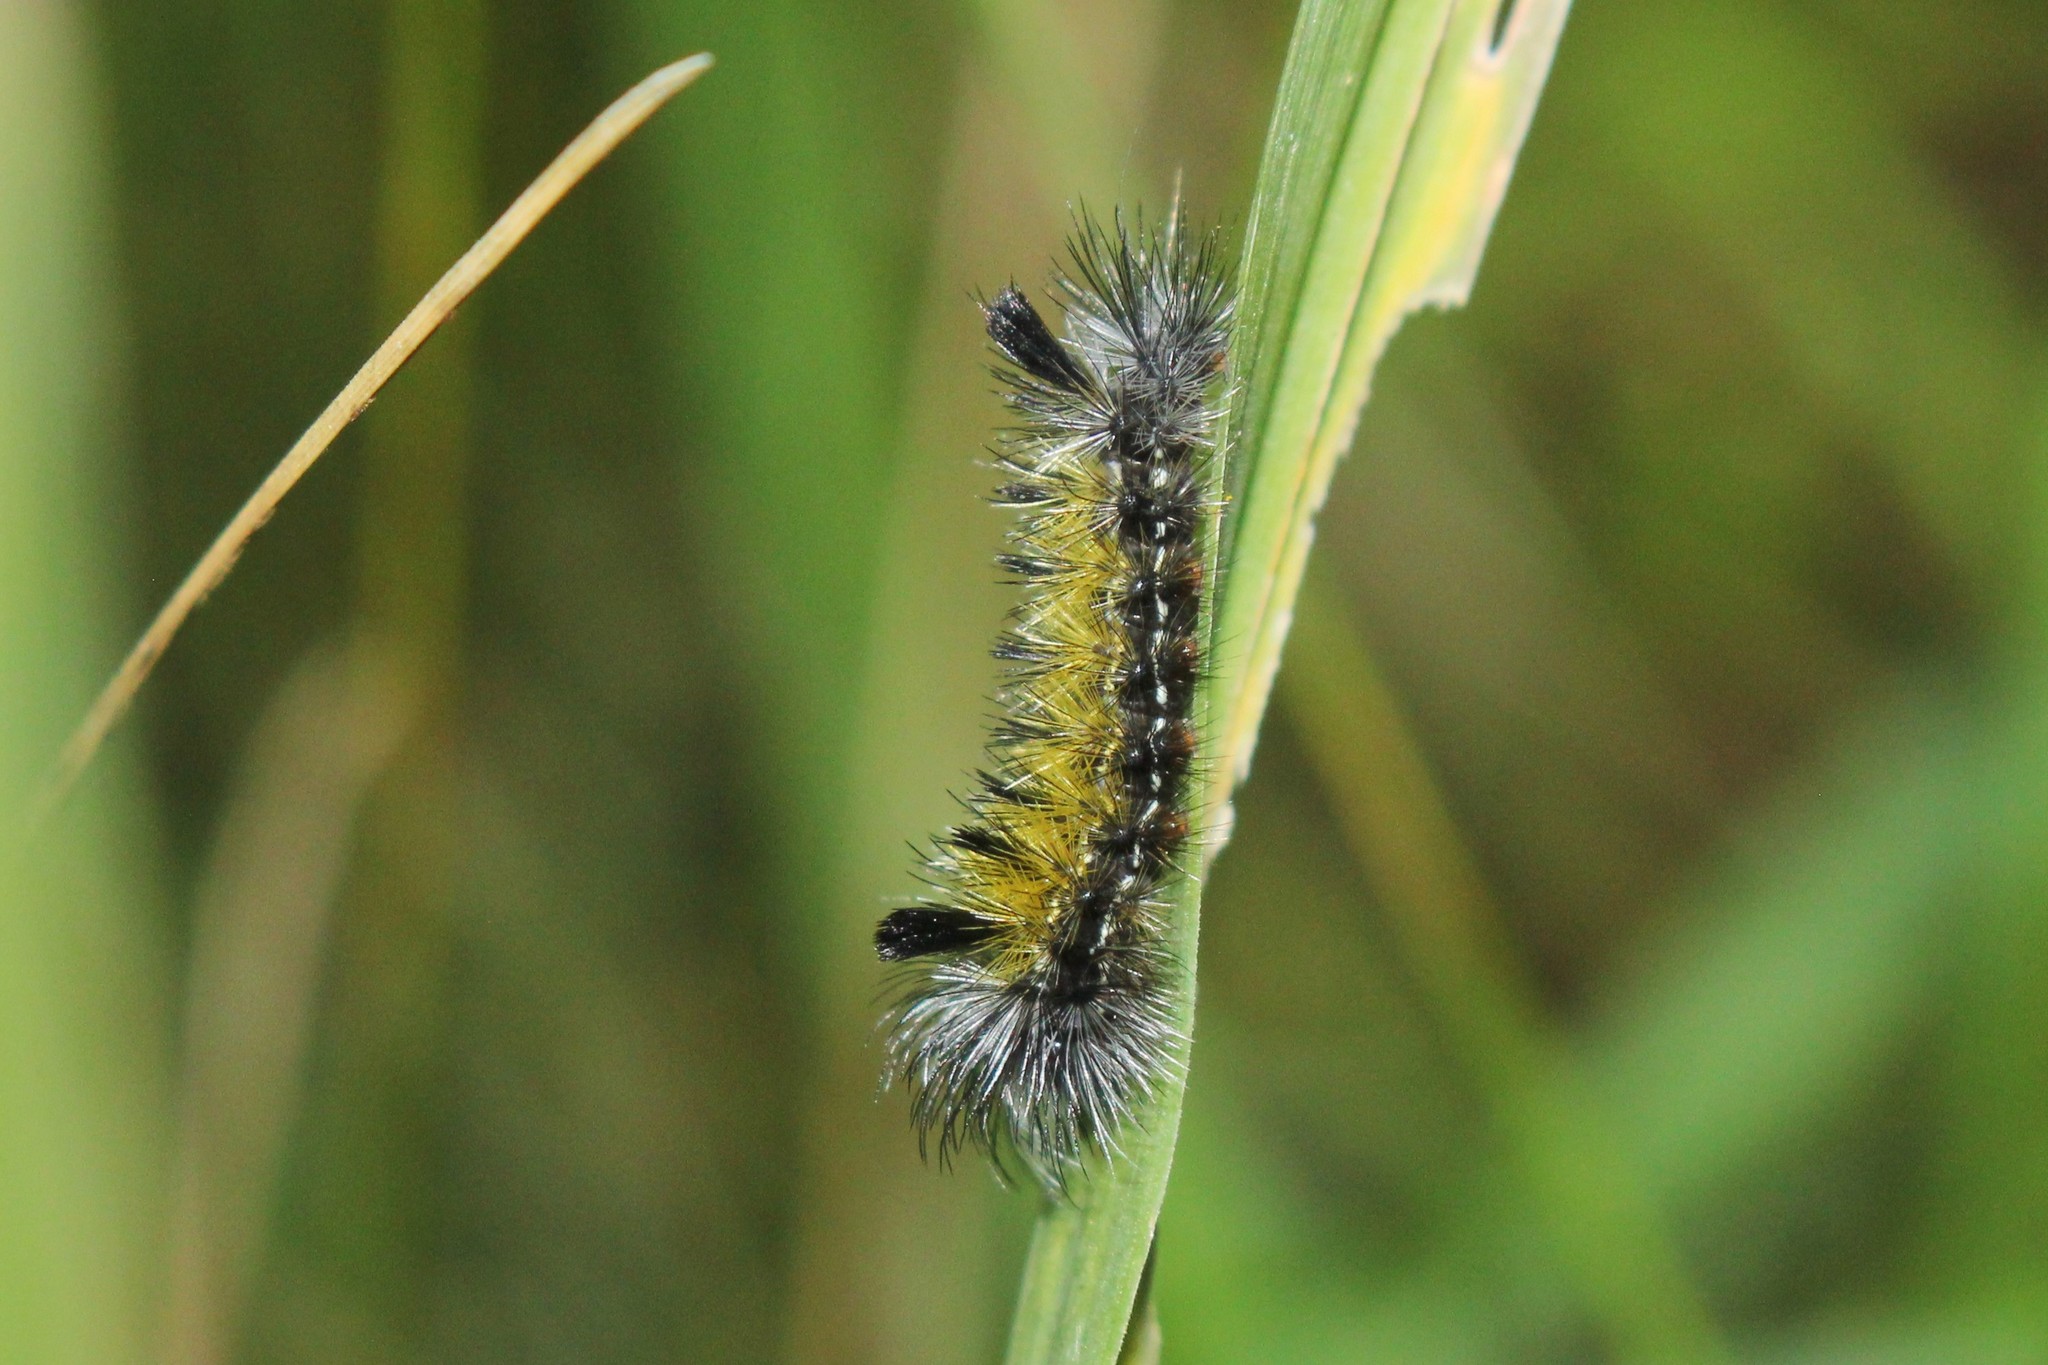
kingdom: Animalia
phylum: Arthropoda
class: Insecta
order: Lepidoptera
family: Erebidae
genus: Ctenucha
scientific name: Ctenucha virginica
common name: Virginia ctenucha moth
